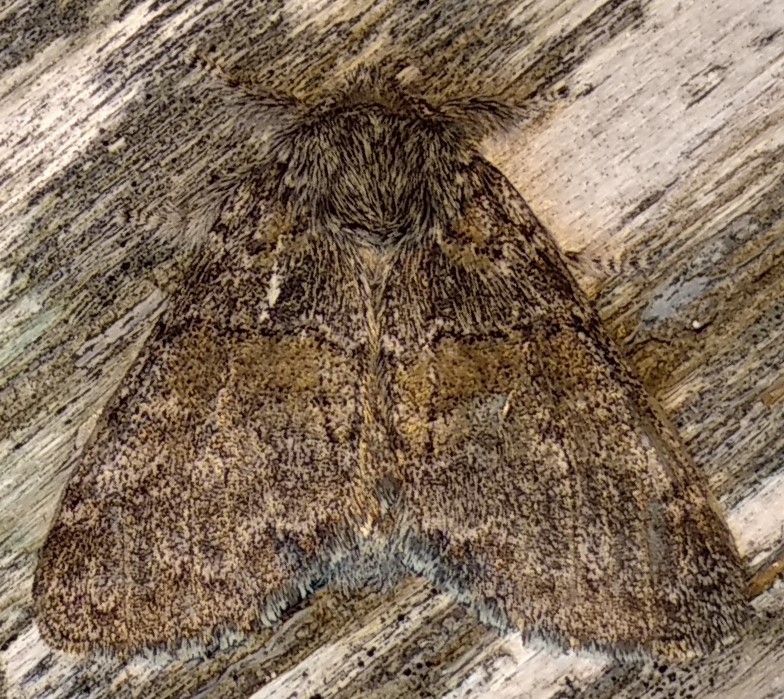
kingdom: Animalia
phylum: Arthropoda
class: Insecta
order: Lepidoptera
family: Notodontidae
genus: Gluphisia
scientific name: Gluphisia septentrionis
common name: Common gluphisia
